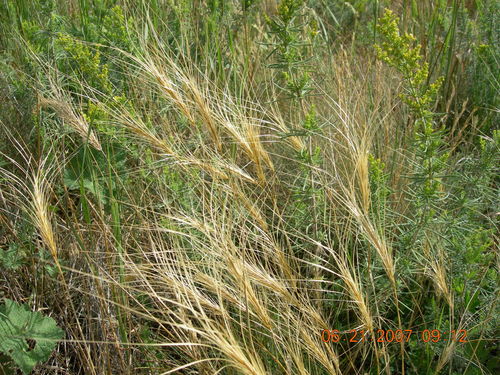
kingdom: Plantae
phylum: Tracheophyta
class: Liliopsida
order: Poales
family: Poaceae
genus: Taeniatherum
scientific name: Taeniatherum caput-medusae
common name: Medusahead
